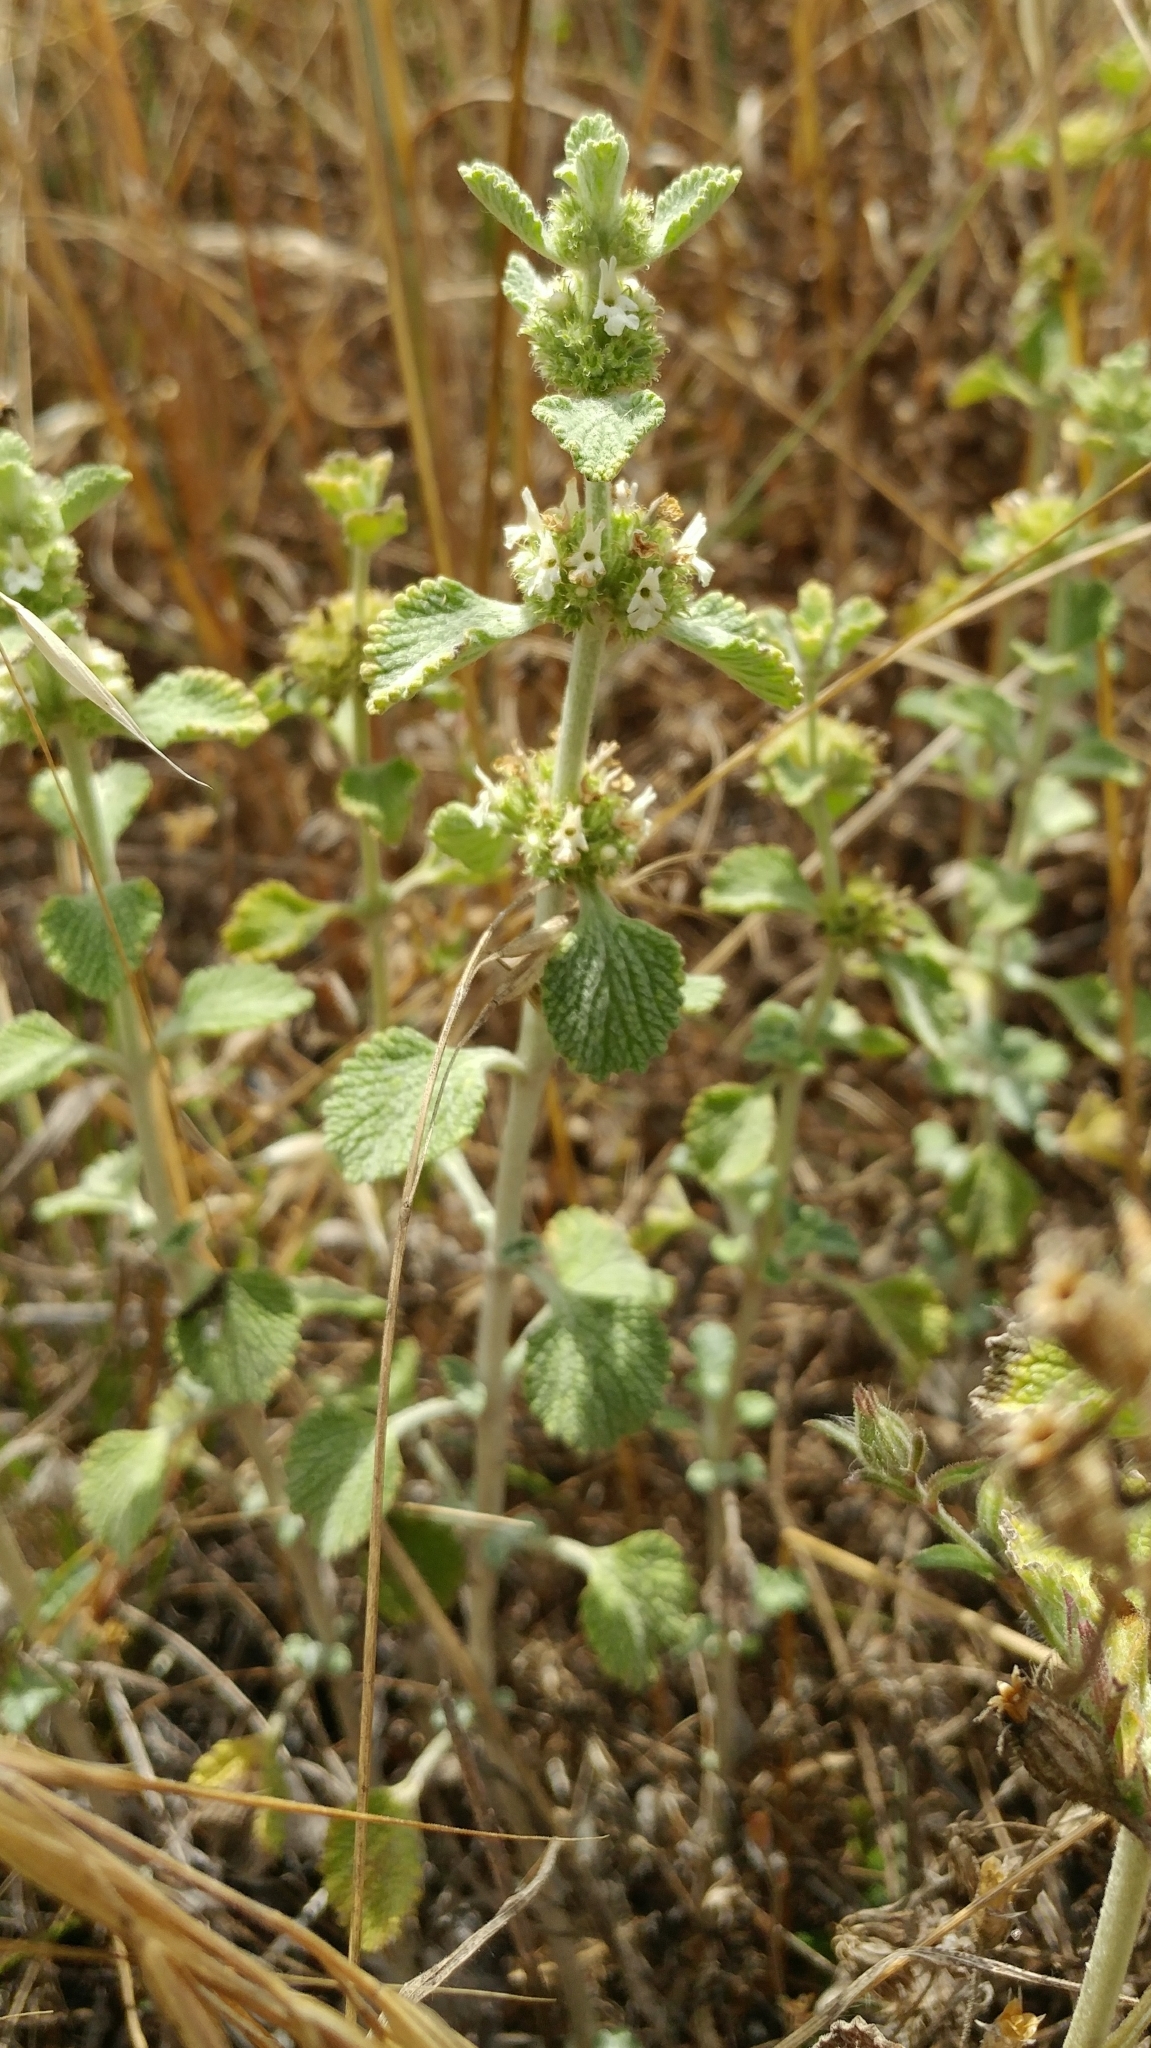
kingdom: Plantae
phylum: Tracheophyta
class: Magnoliopsida
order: Lamiales
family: Lamiaceae
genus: Marrubium
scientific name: Marrubium vulgare
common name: Horehound
